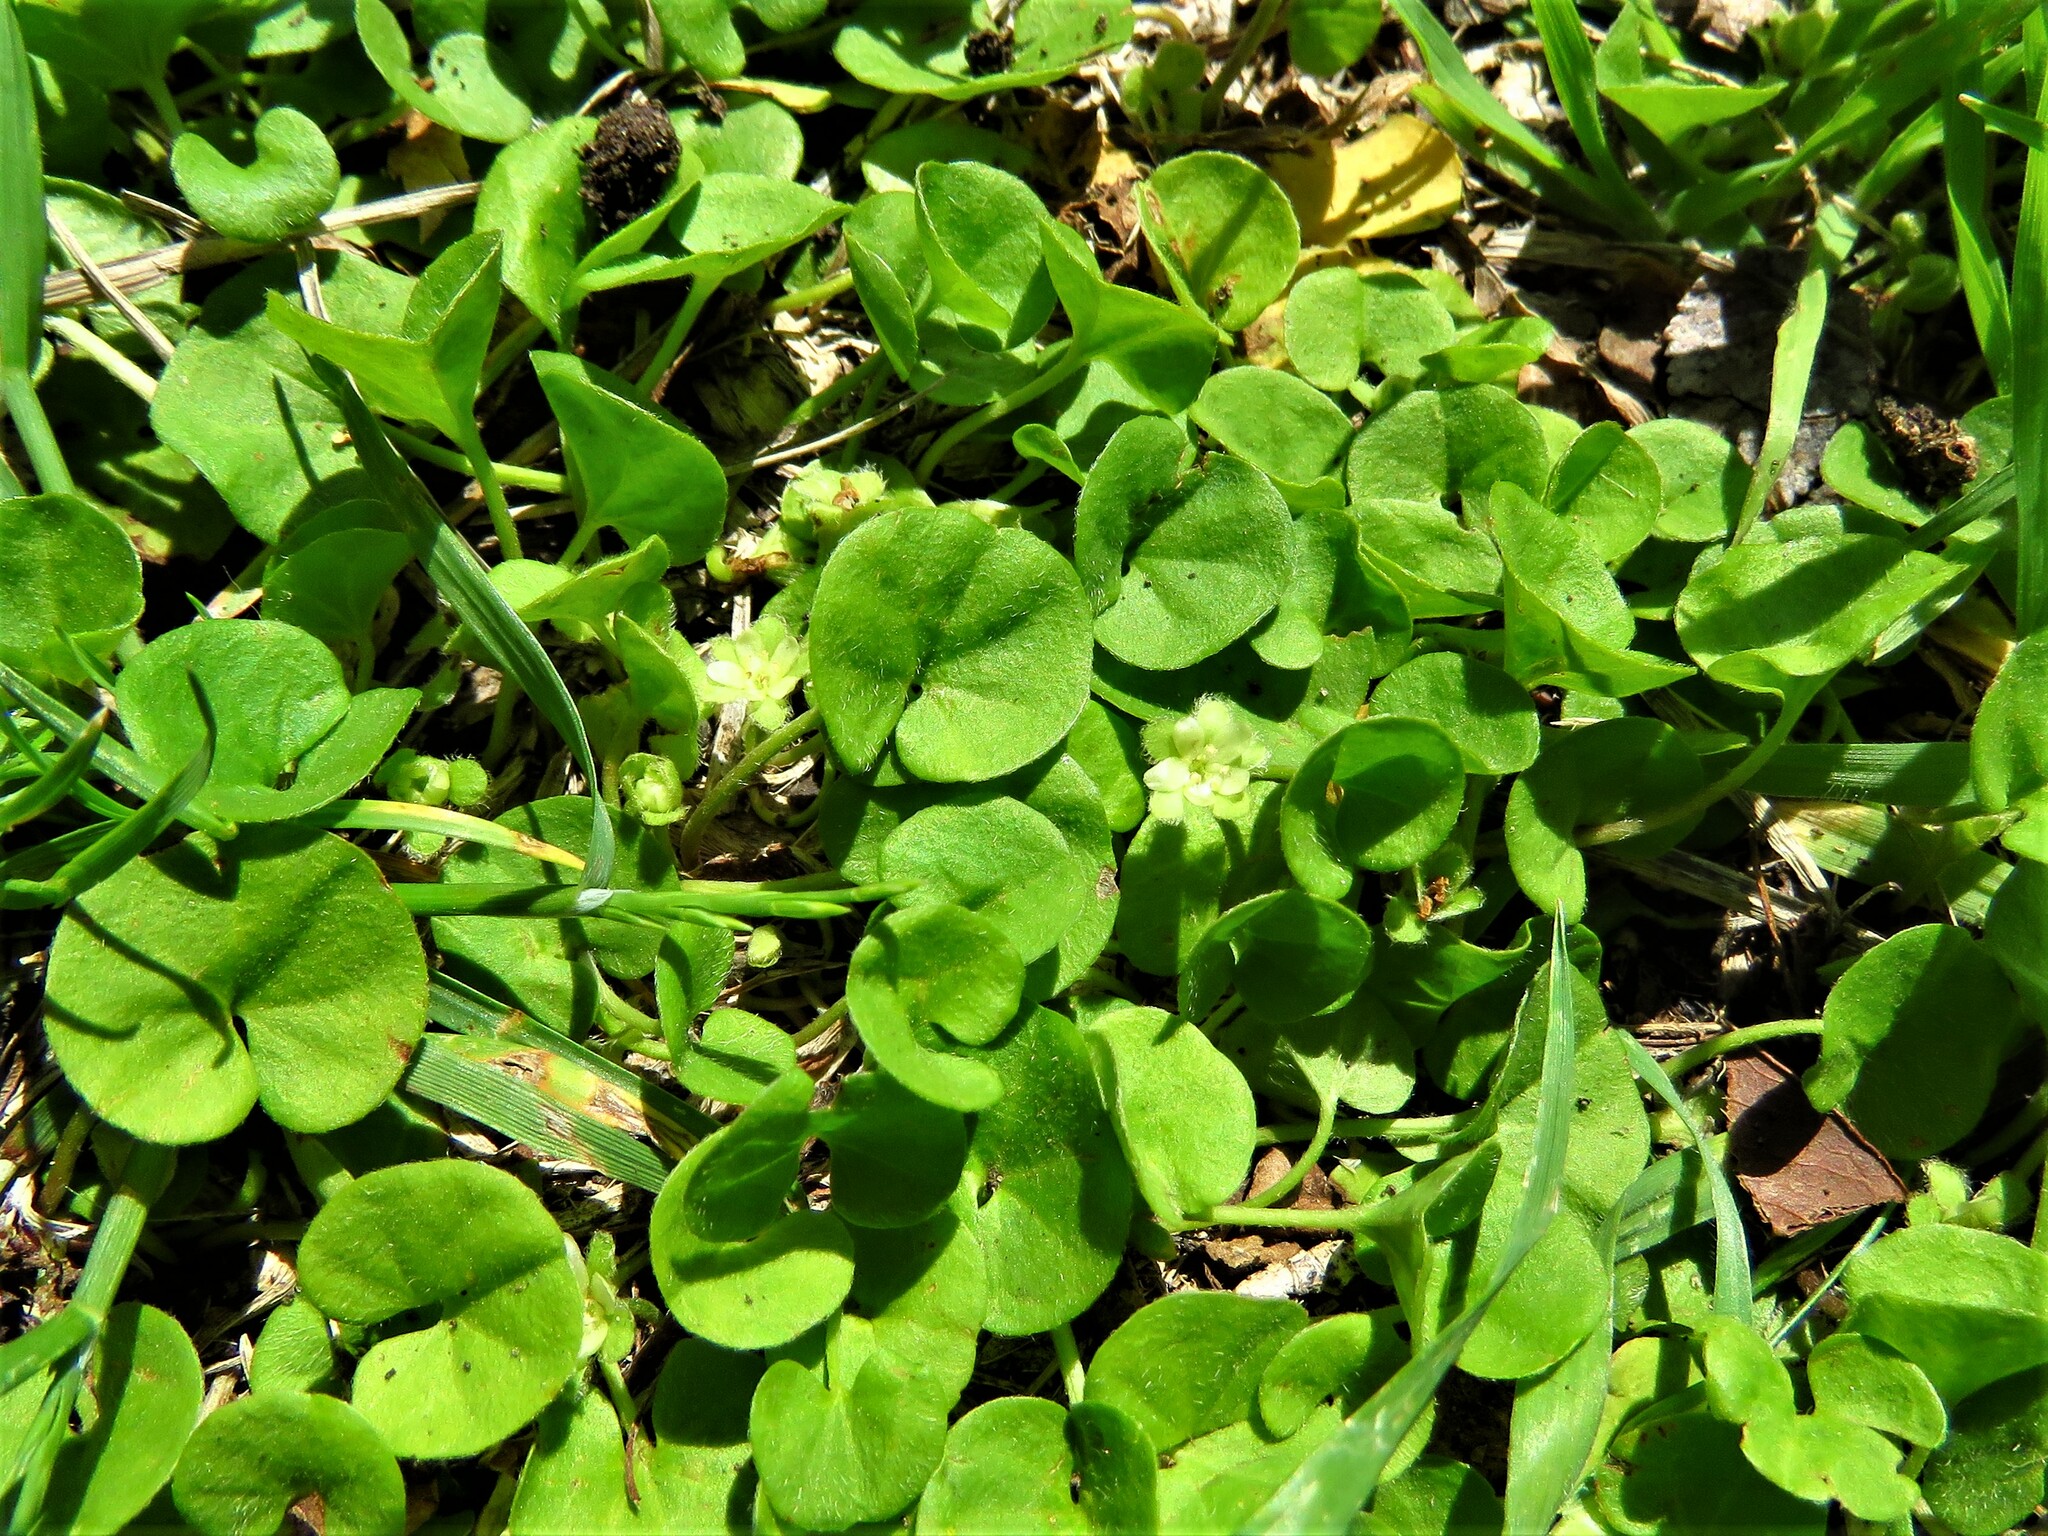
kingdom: Plantae
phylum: Tracheophyta
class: Magnoliopsida
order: Solanales
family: Convolvulaceae
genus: Dichondra
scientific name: Dichondra carolinensis
